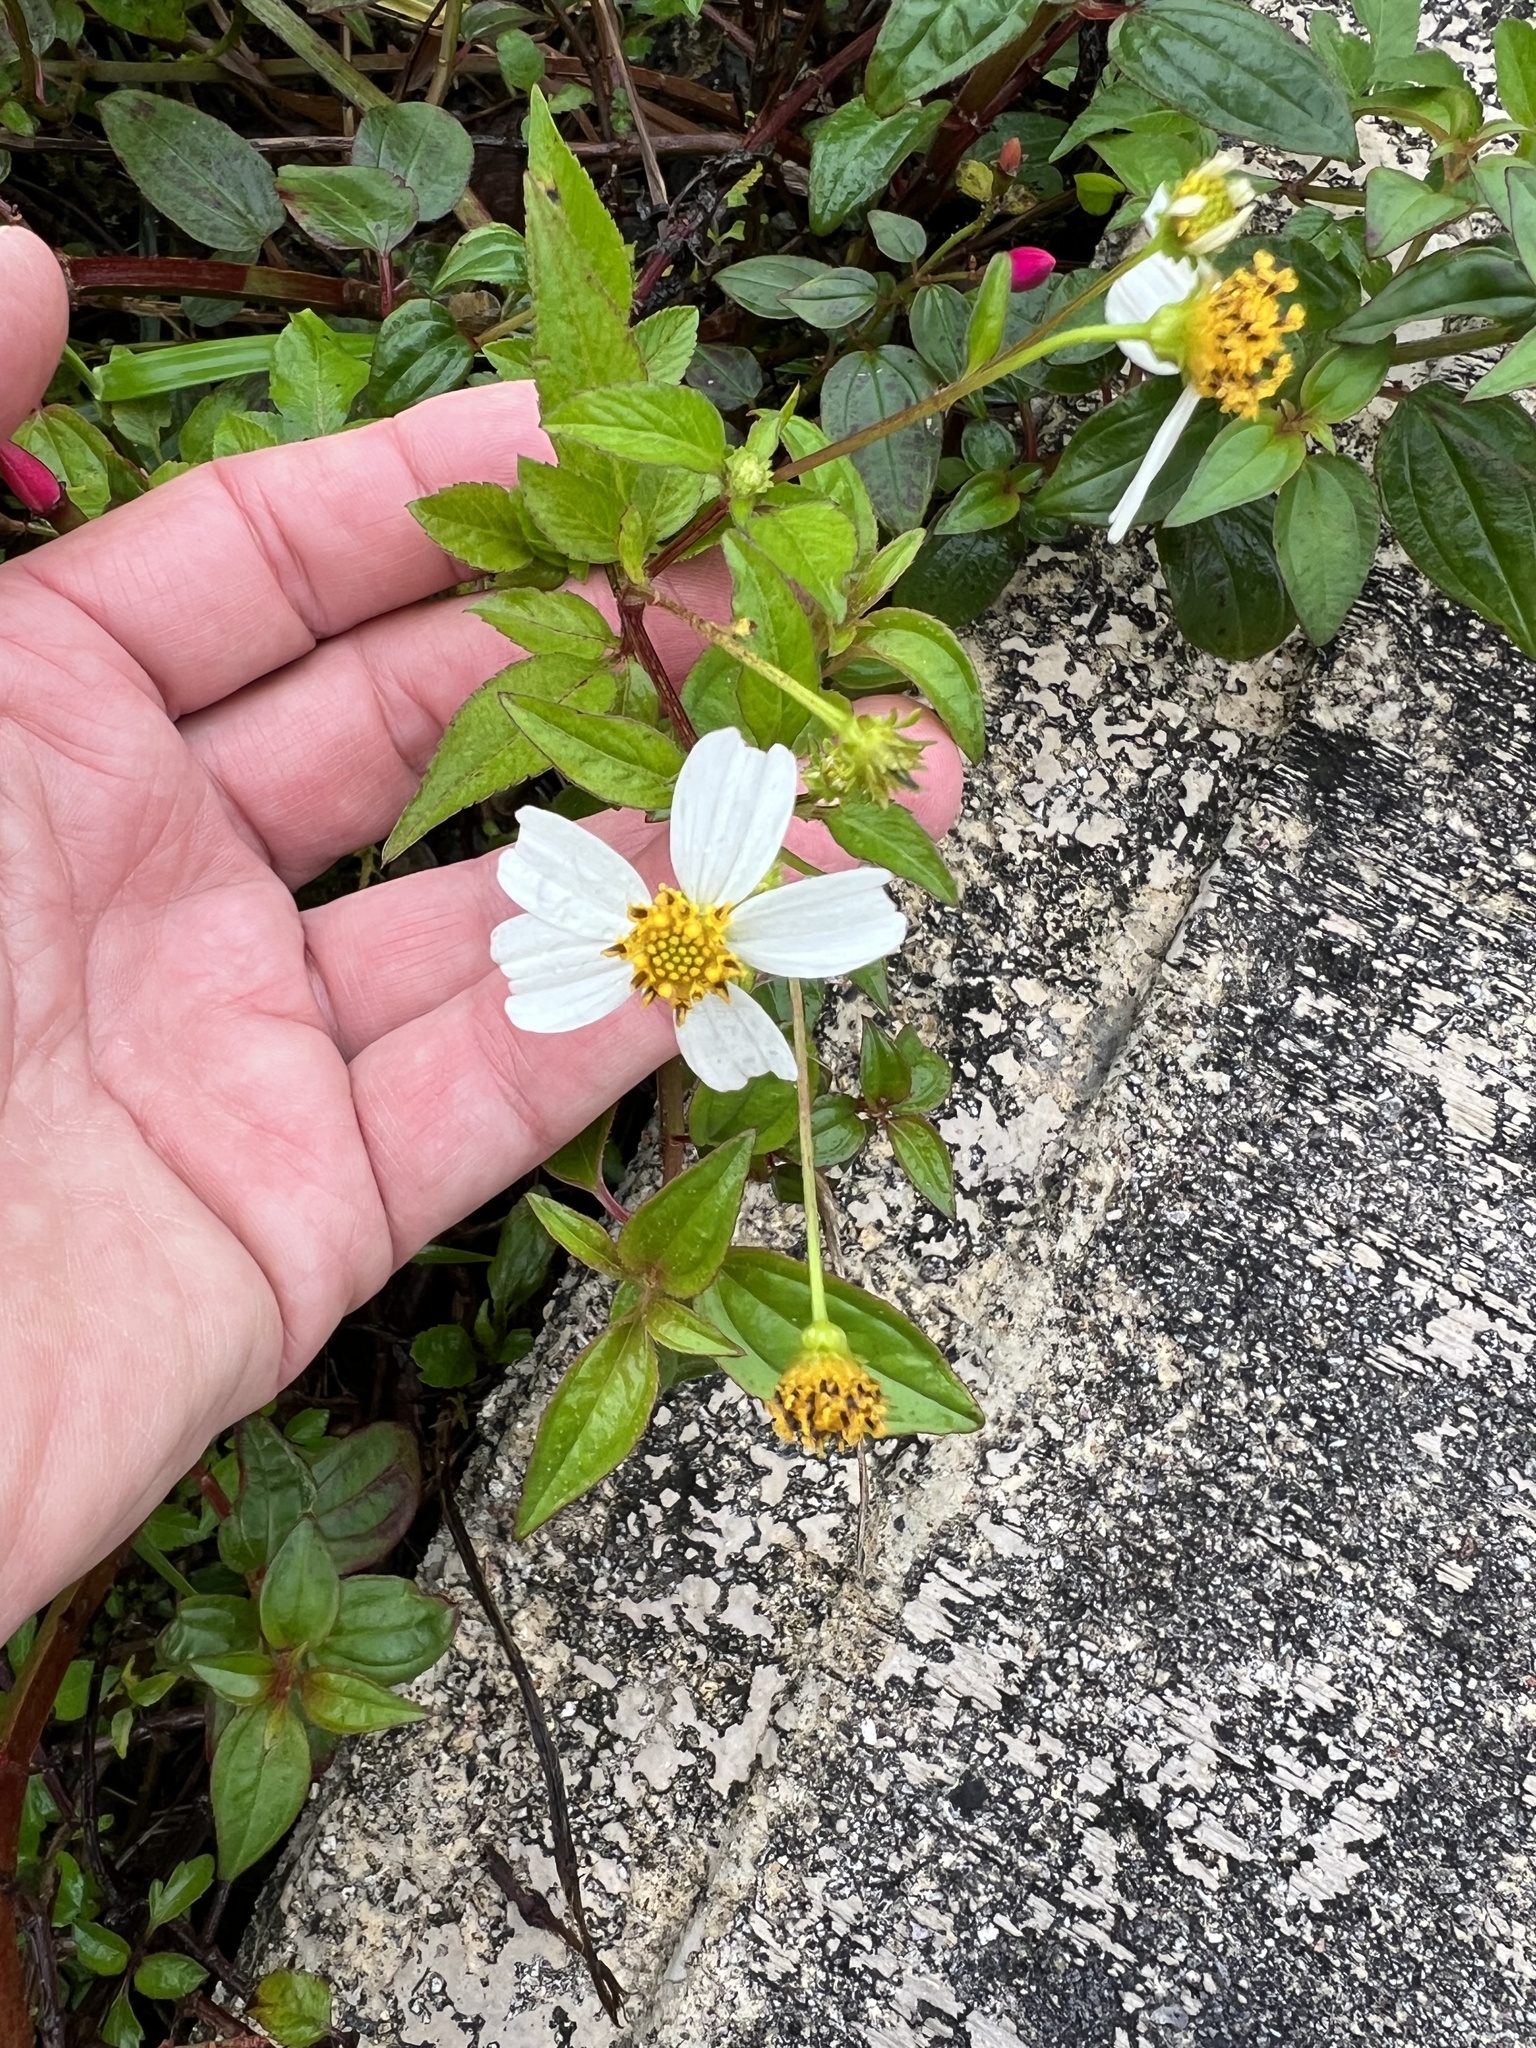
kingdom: Plantae
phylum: Tracheophyta
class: Magnoliopsida
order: Asterales
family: Asteraceae
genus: Bidens
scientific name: Bidens alba
